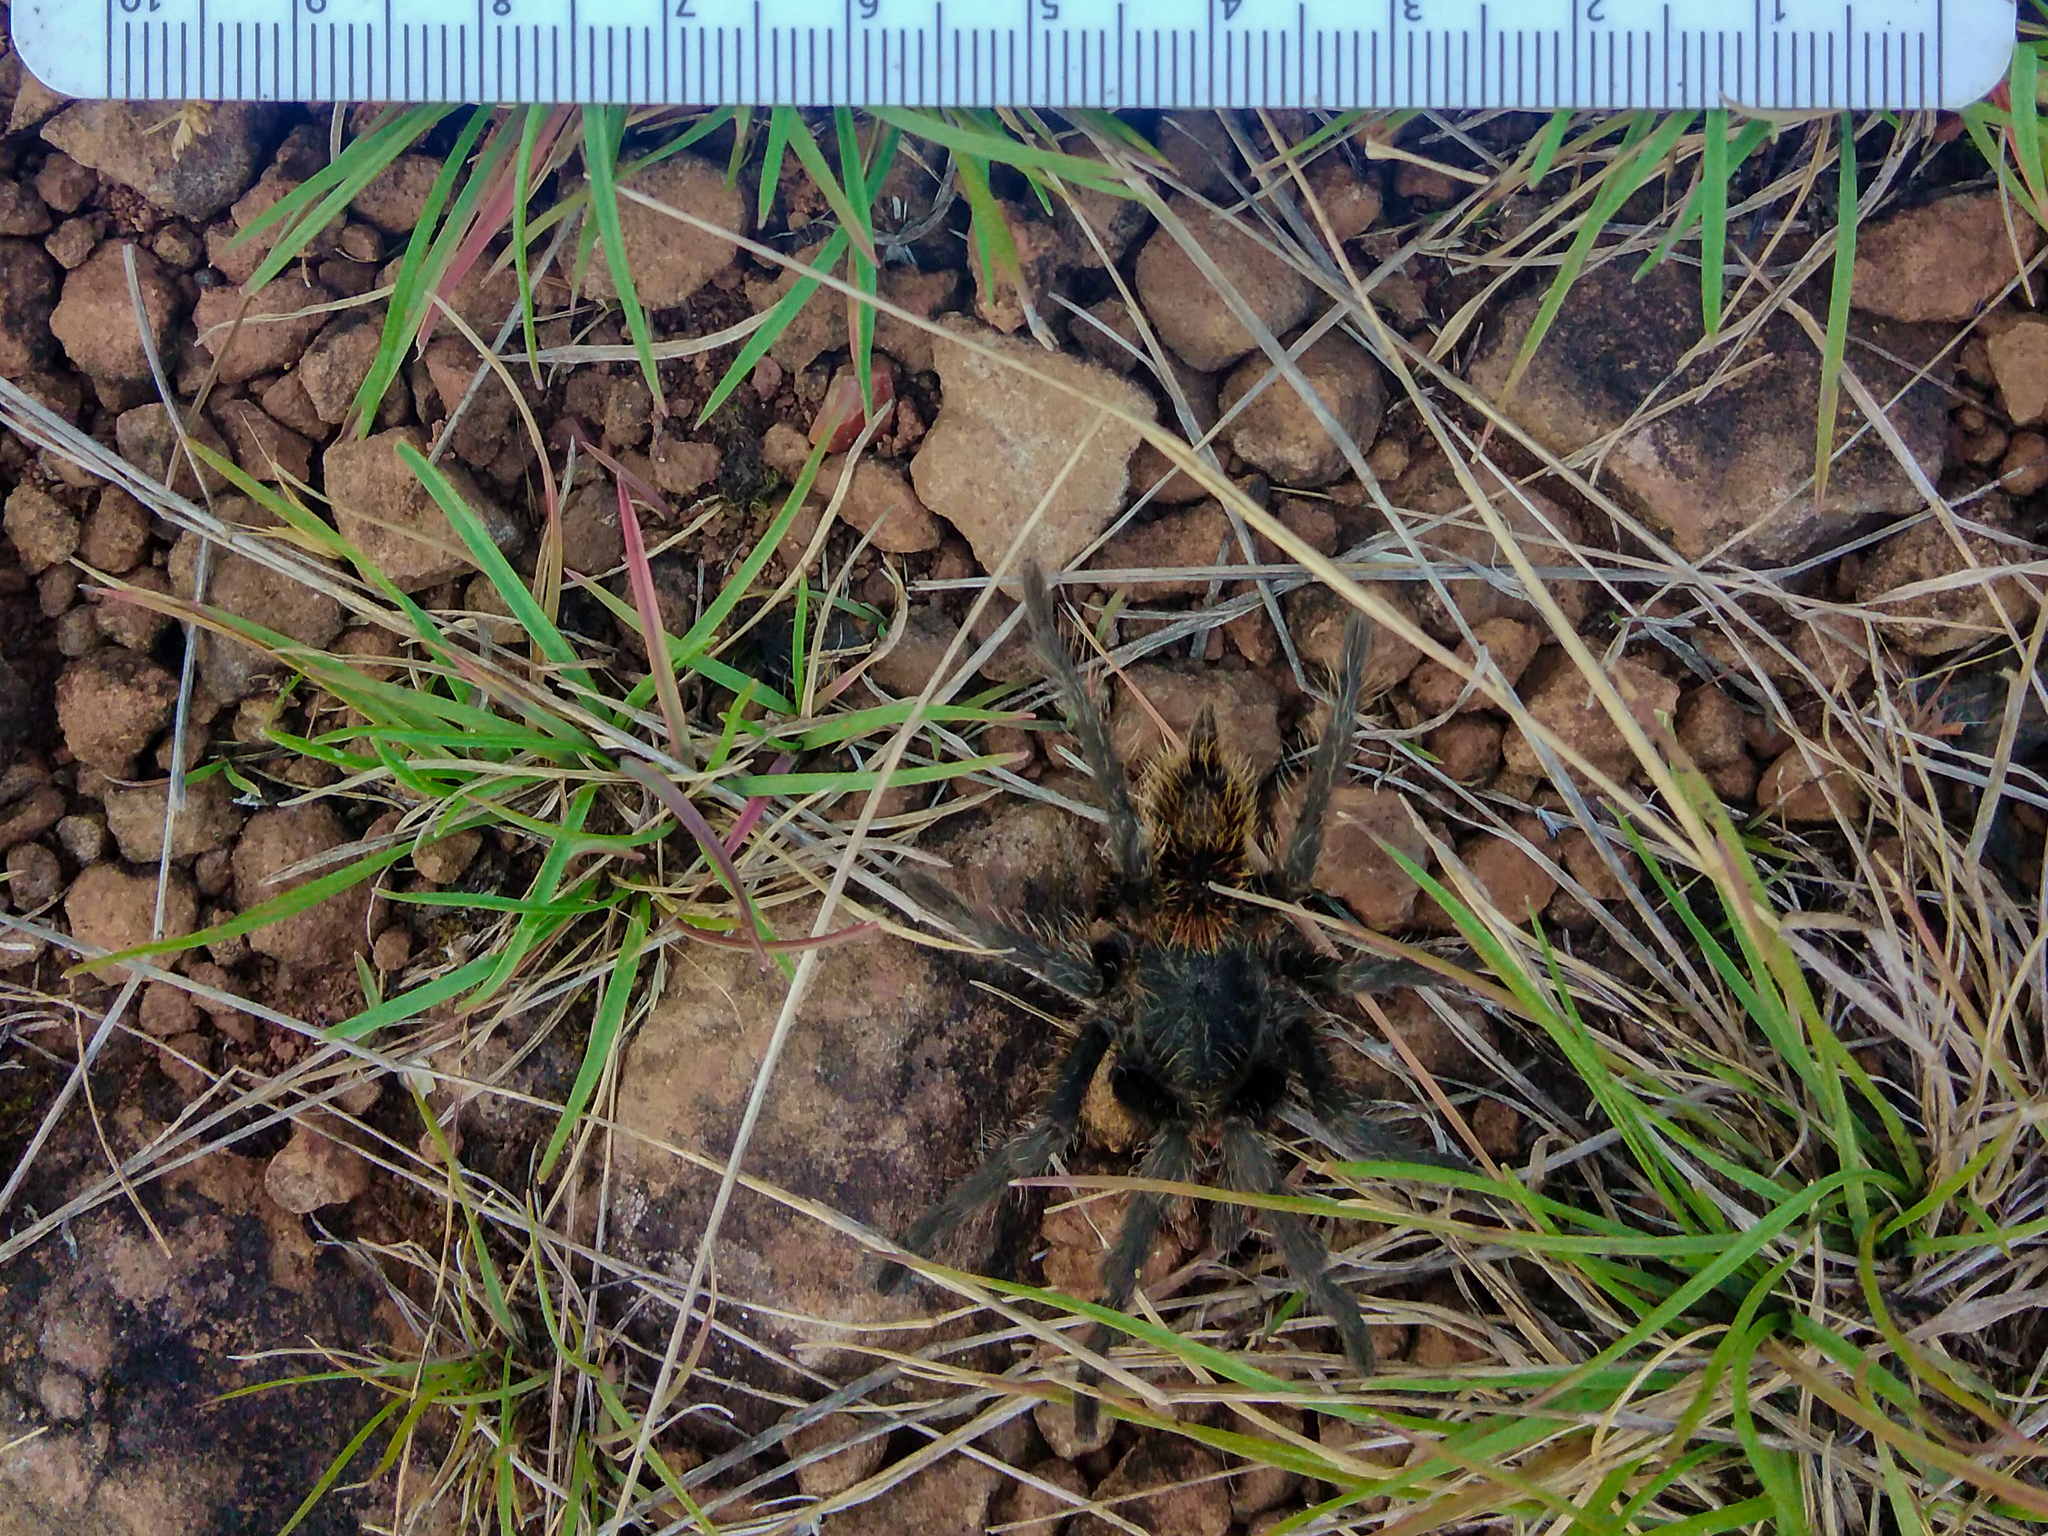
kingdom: Animalia
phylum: Arthropoda
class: Arachnida
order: Araneae
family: Theraphosidae
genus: Plesiopelma
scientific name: Plesiopelma longisternale
